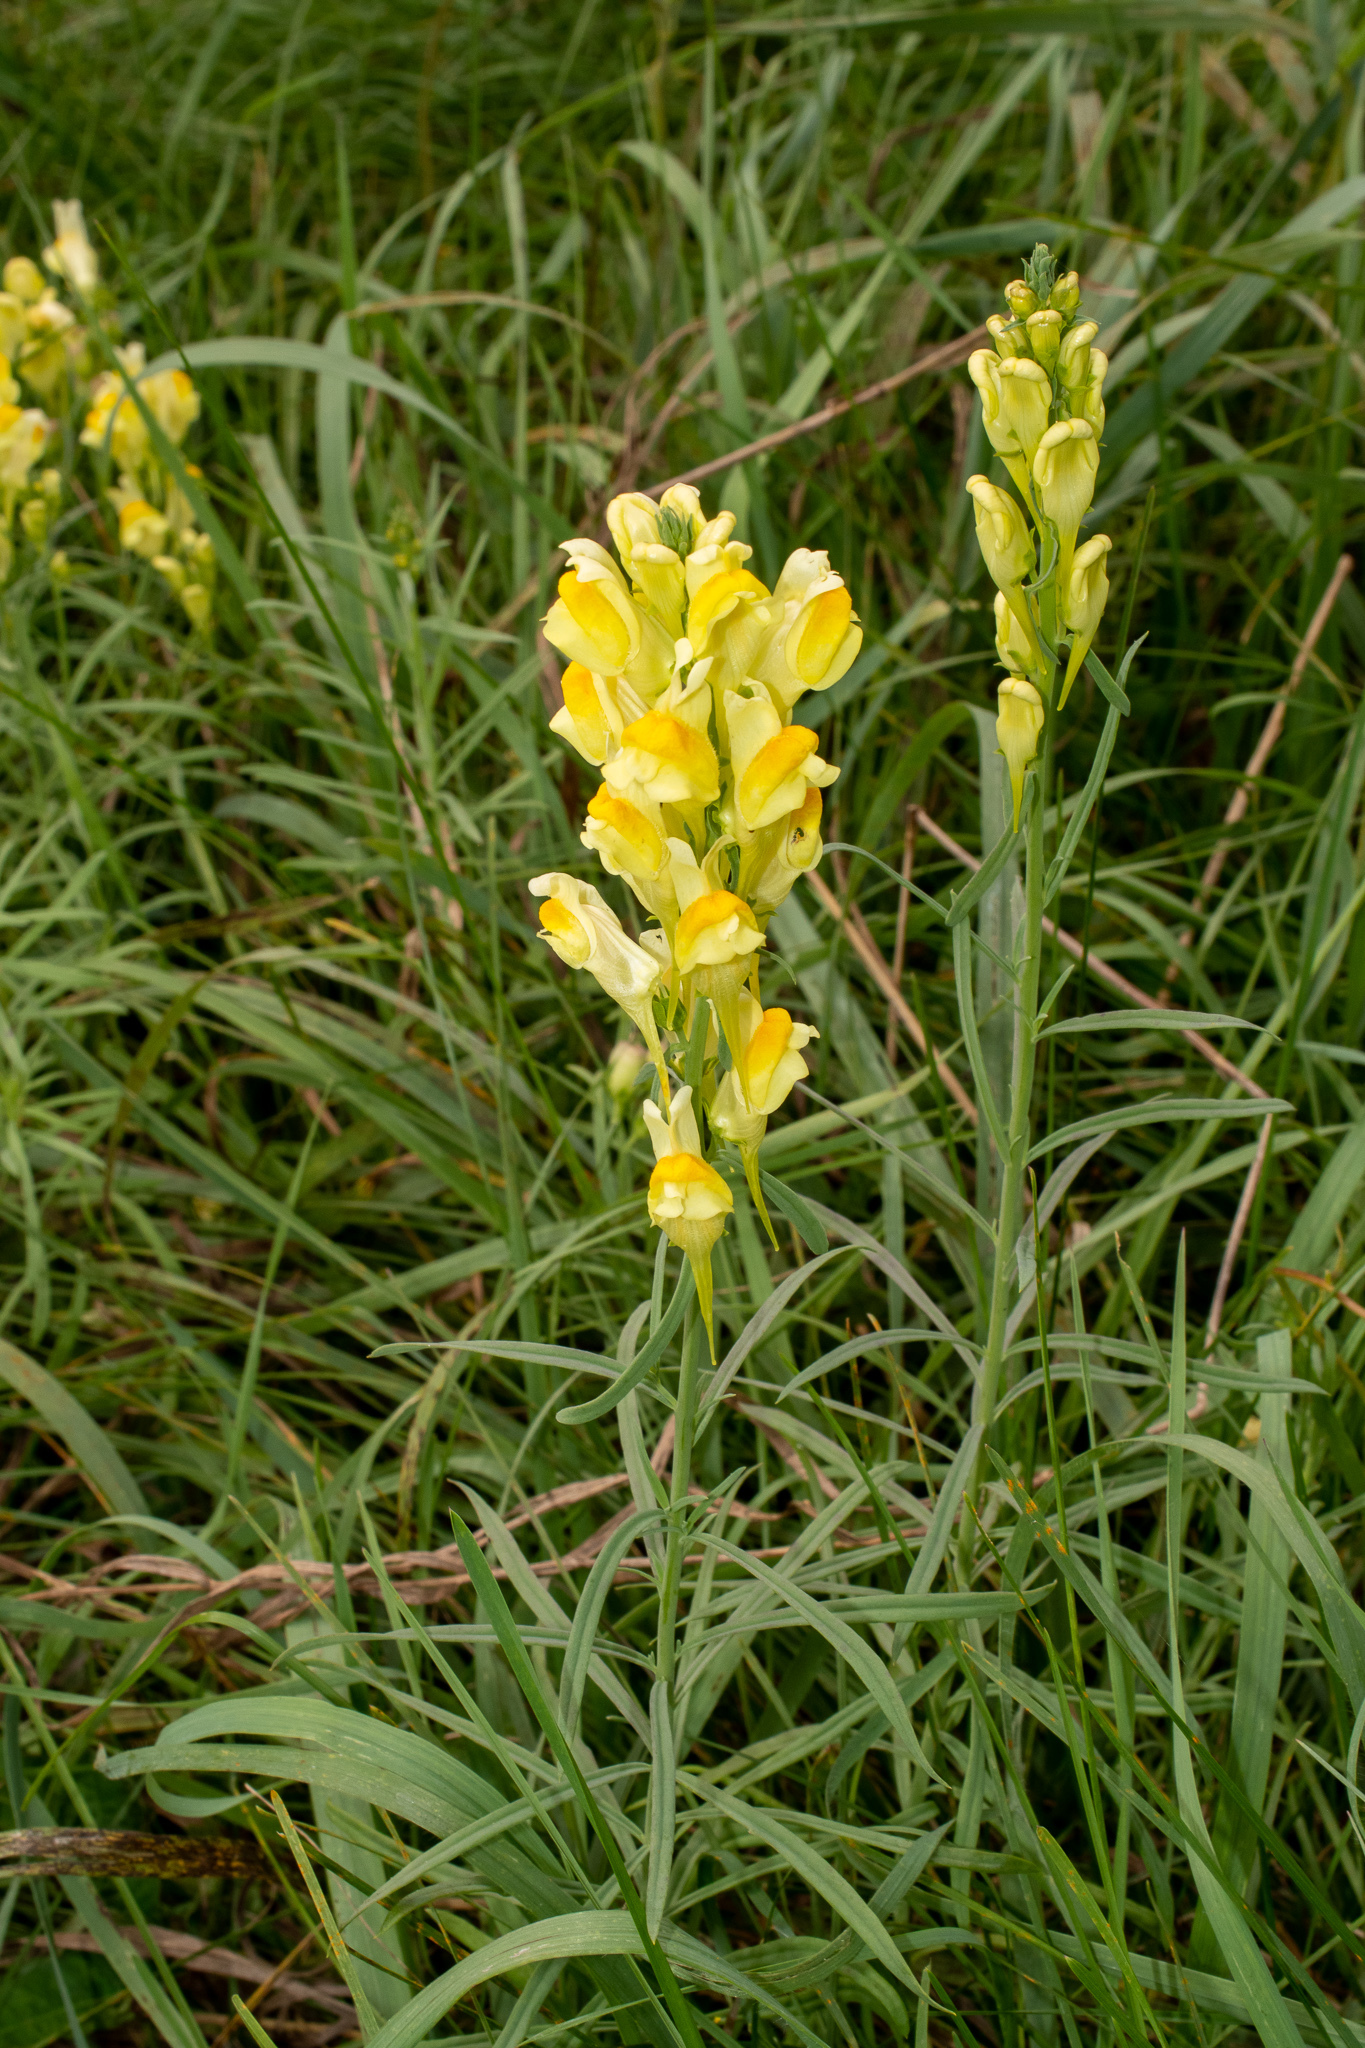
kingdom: Plantae
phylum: Tracheophyta
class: Magnoliopsida
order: Lamiales
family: Plantaginaceae
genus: Linaria
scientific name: Linaria vulgaris
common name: Butter and eggs
